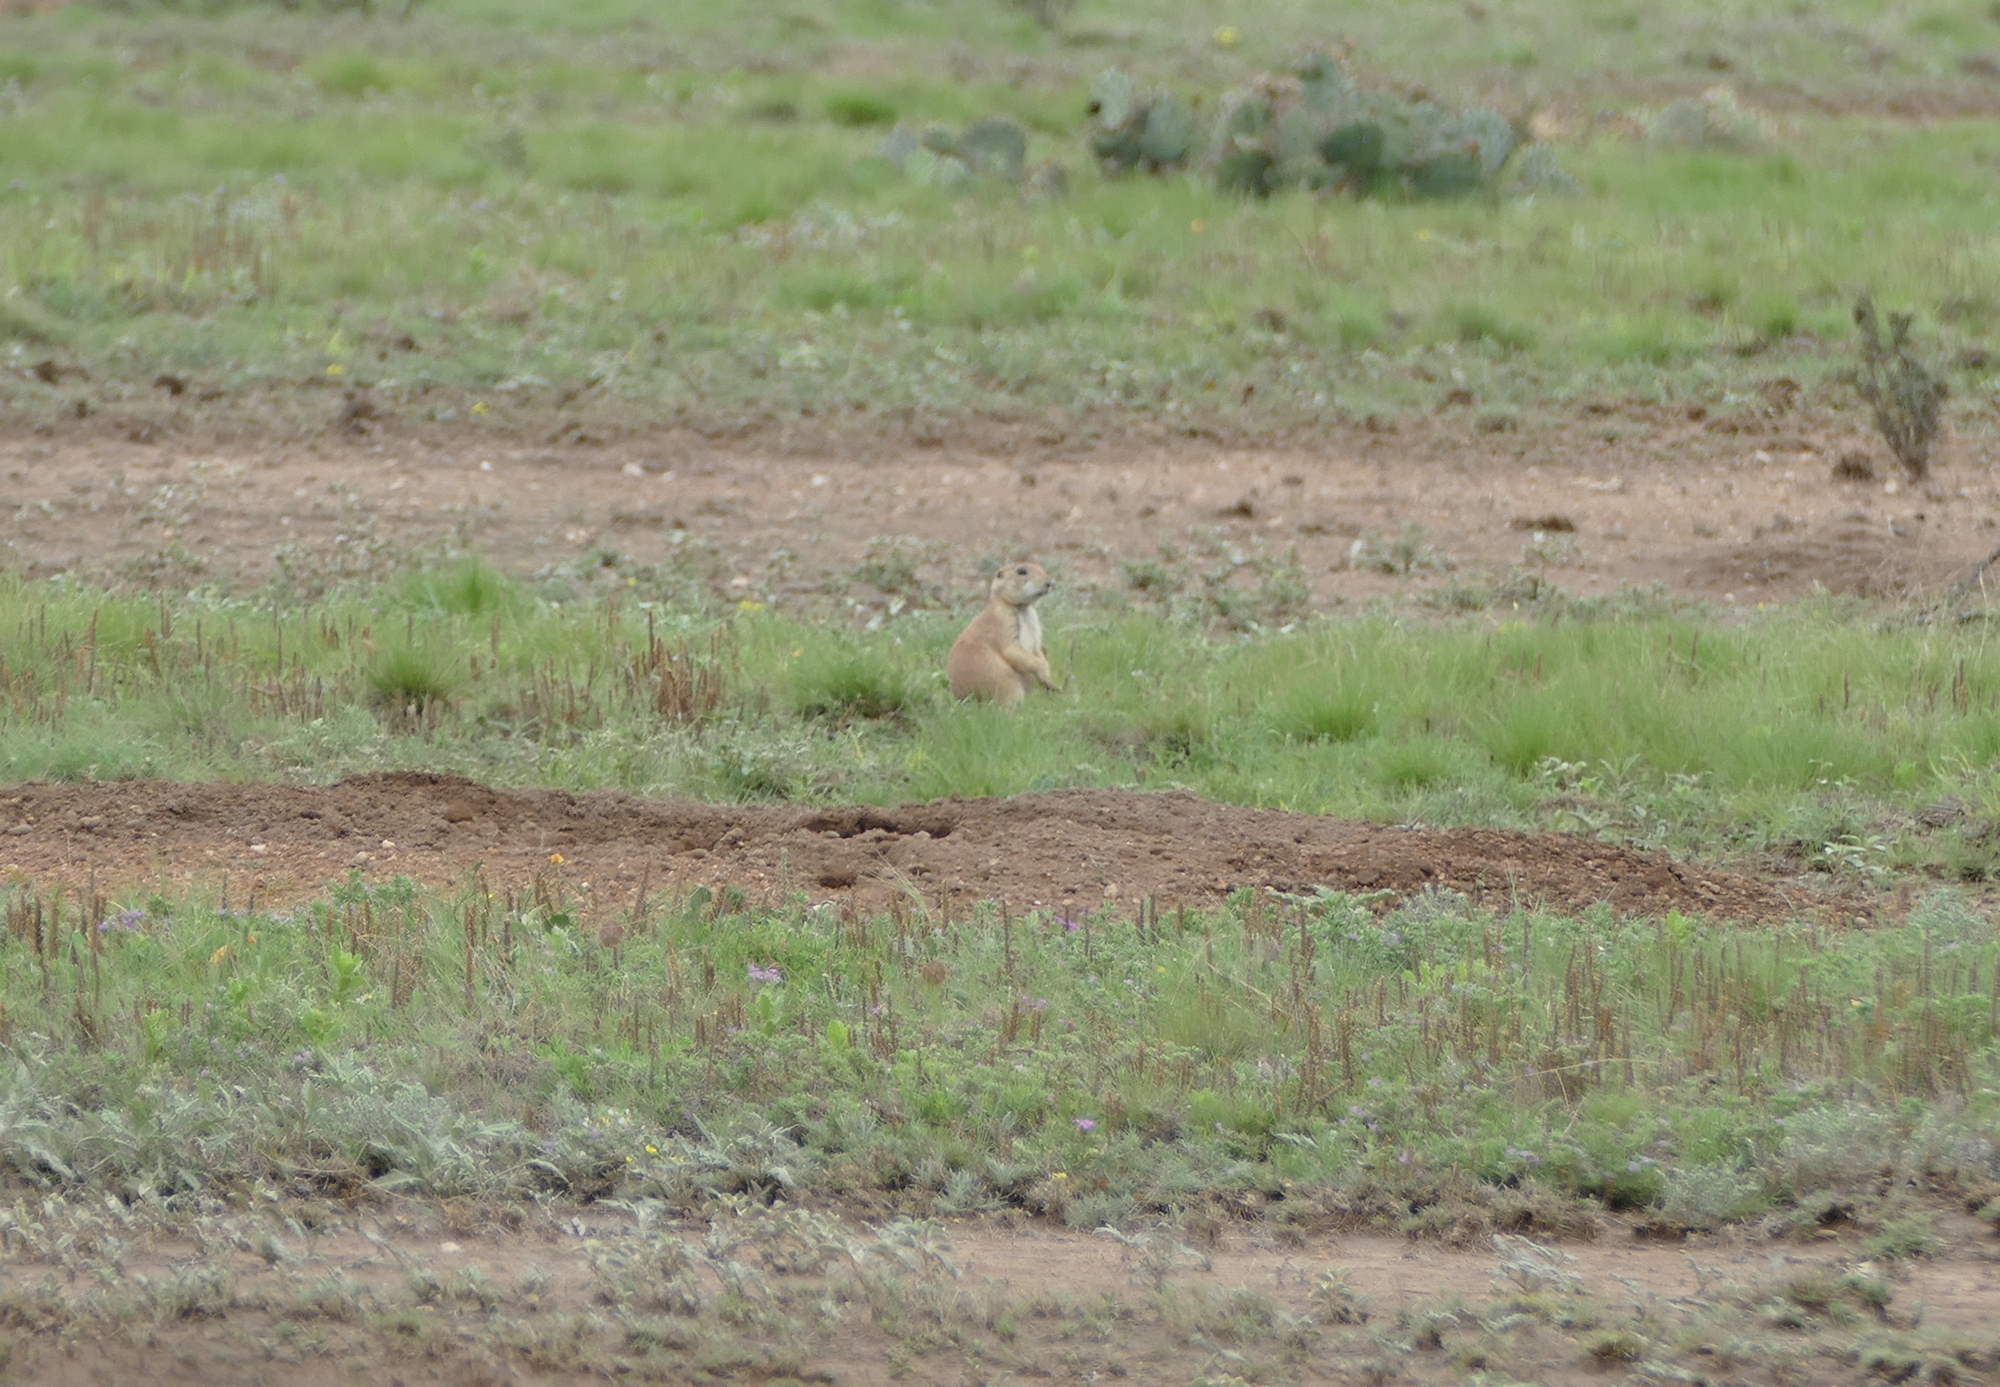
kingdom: Animalia
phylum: Chordata
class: Mammalia
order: Rodentia
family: Sciuridae
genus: Cynomys
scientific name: Cynomys ludovicianus
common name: Black-tailed prairie dog
